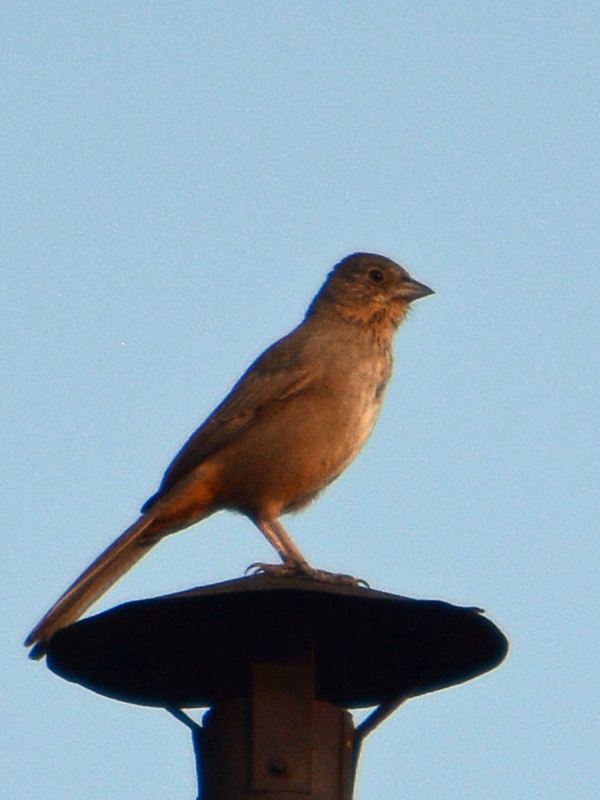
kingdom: Animalia
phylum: Chordata
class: Aves
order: Passeriformes
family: Passerellidae
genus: Melozone
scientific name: Melozone fusca
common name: Canyon towhee
